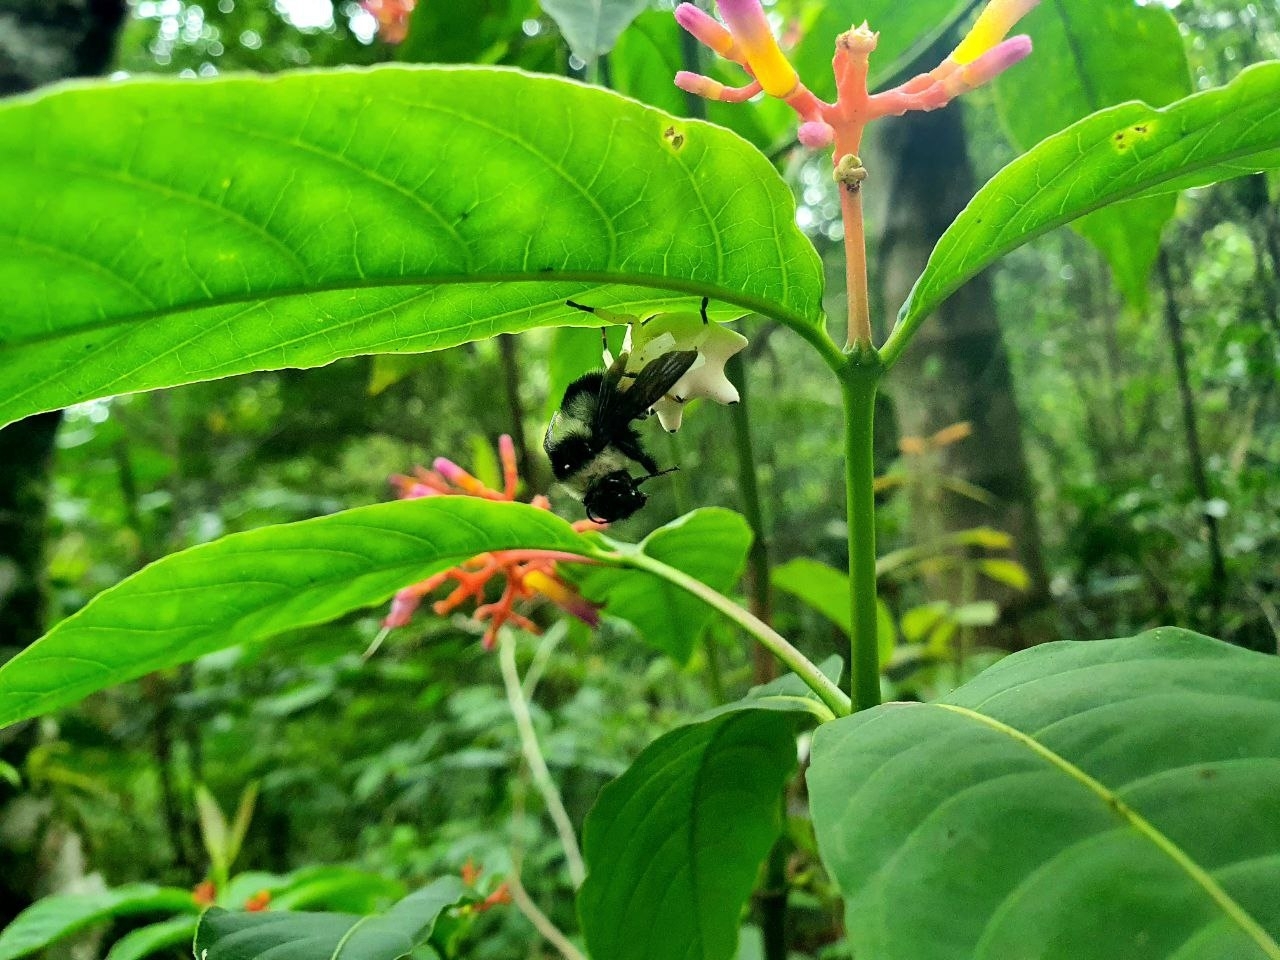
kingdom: Animalia
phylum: Arthropoda
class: Arachnida
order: Araneae
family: Thomisidae
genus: Epicadus
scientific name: Epicadus heterogaster
